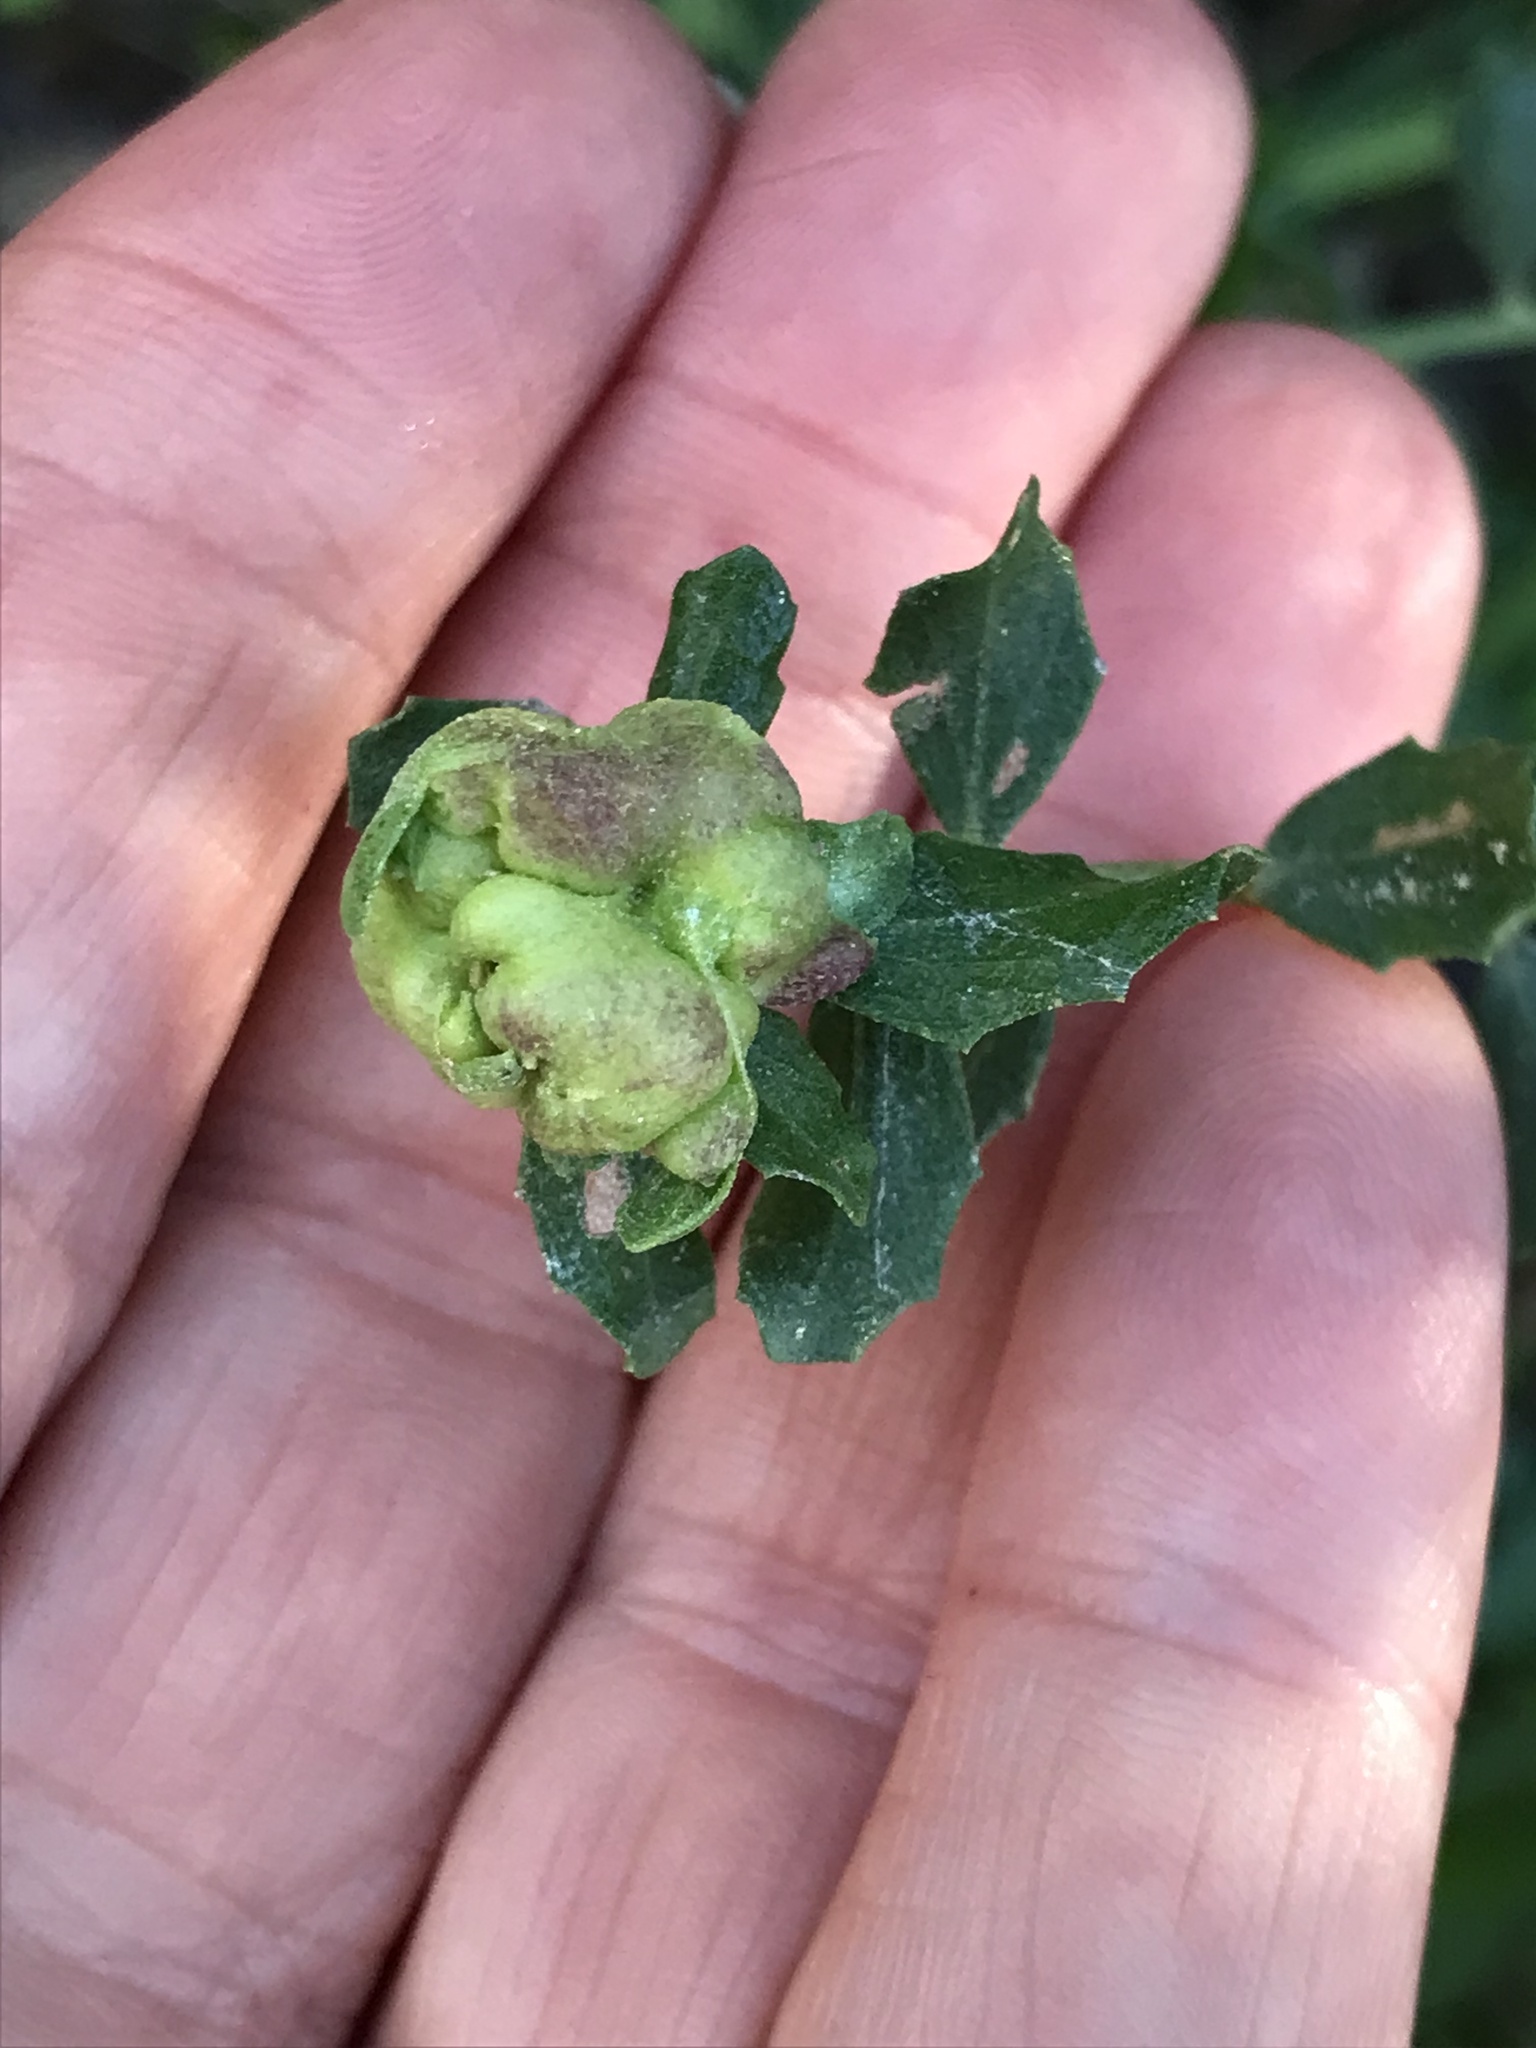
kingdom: Animalia
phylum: Arthropoda
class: Insecta
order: Diptera
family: Cecidomyiidae
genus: Rhopalomyia
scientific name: Rhopalomyia californica
